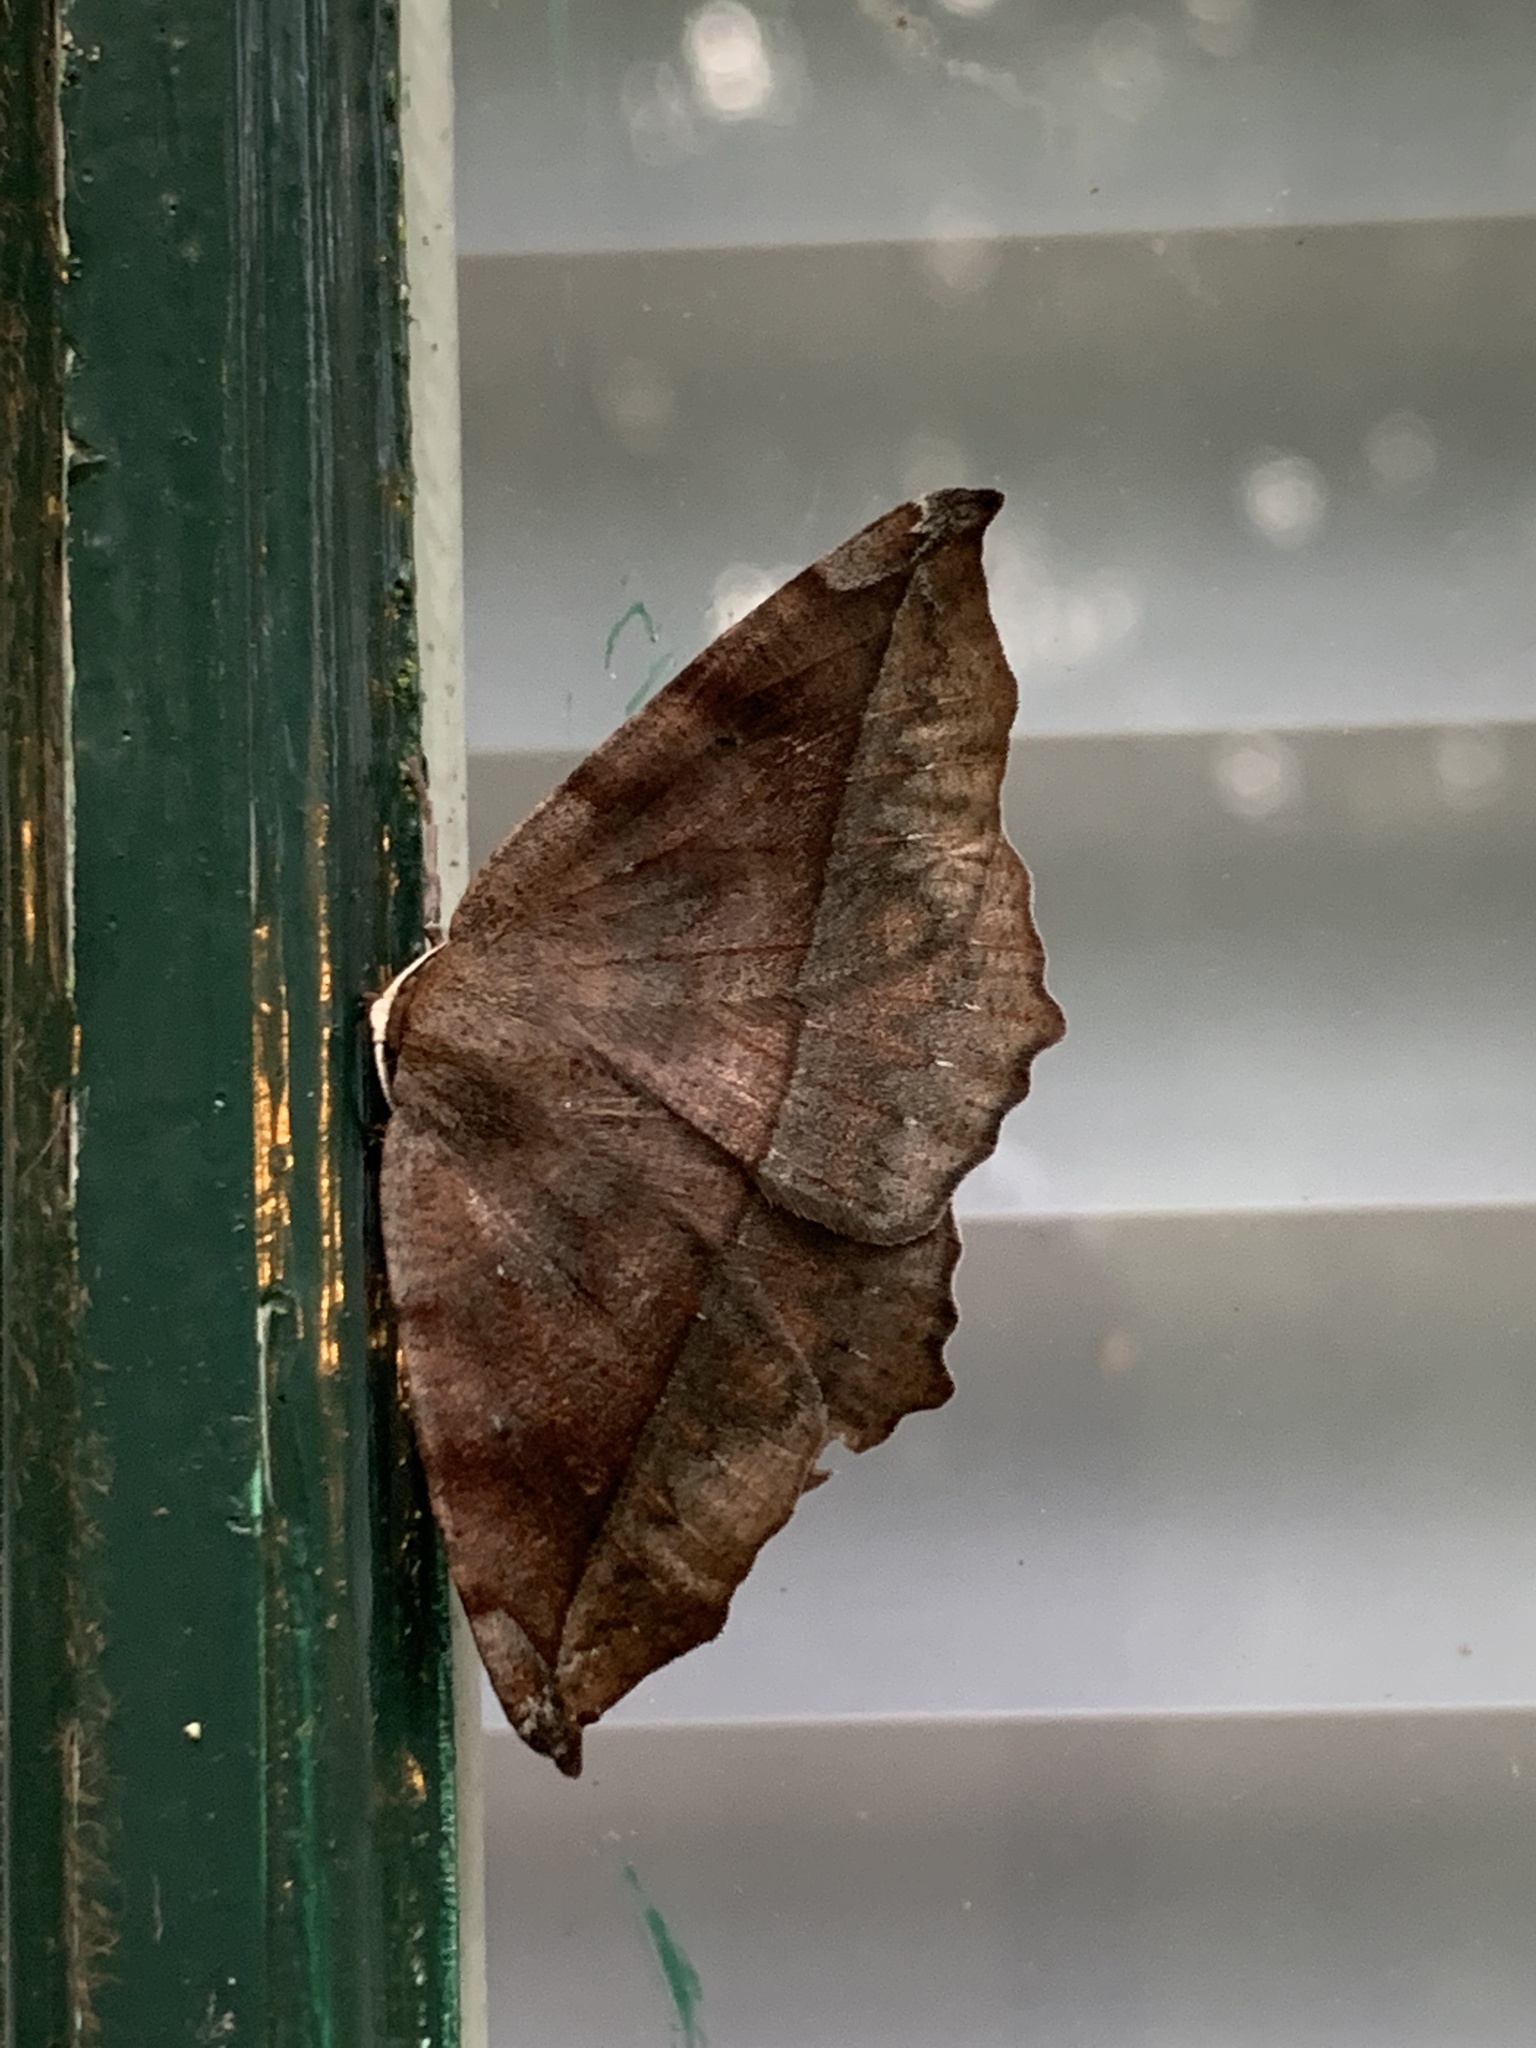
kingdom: Animalia
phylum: Arthropoda
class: Insecta
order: Lepidoptera
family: Geometridae
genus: Eutrapela
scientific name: Eutrapela clemataria
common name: Curved-toothed geometer
